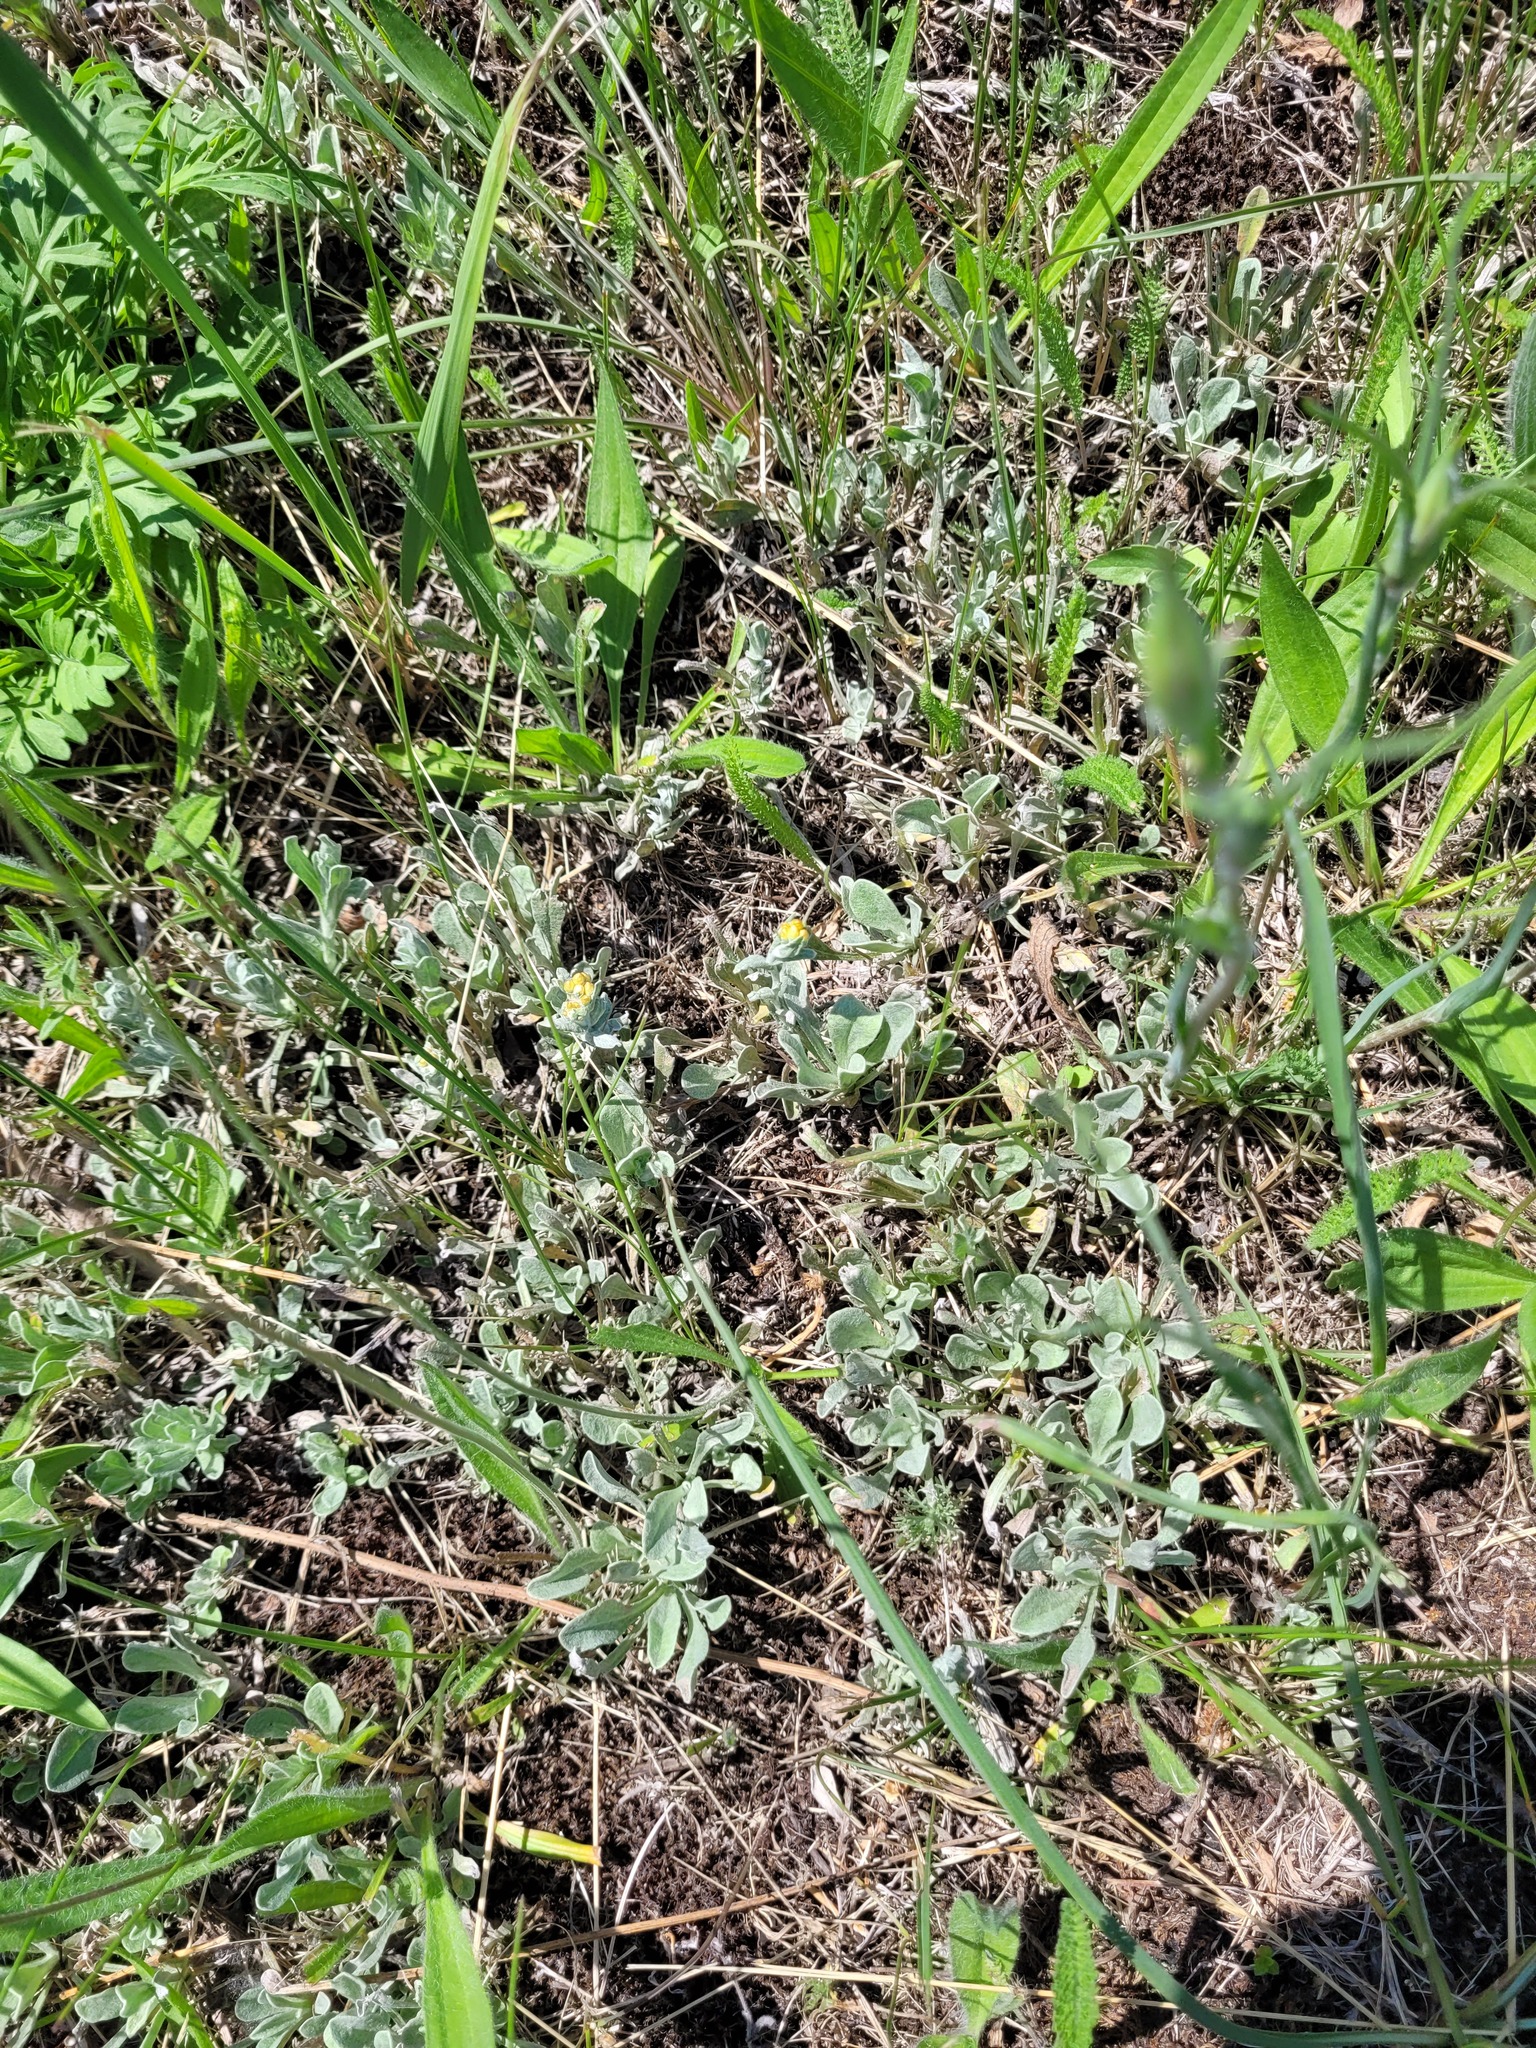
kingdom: Plantae
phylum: Tracheophyta
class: Magnoliopsida
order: Asterales
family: Asteraceae
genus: Helichrysum
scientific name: Helichrysum arenarium
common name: Strawflower
